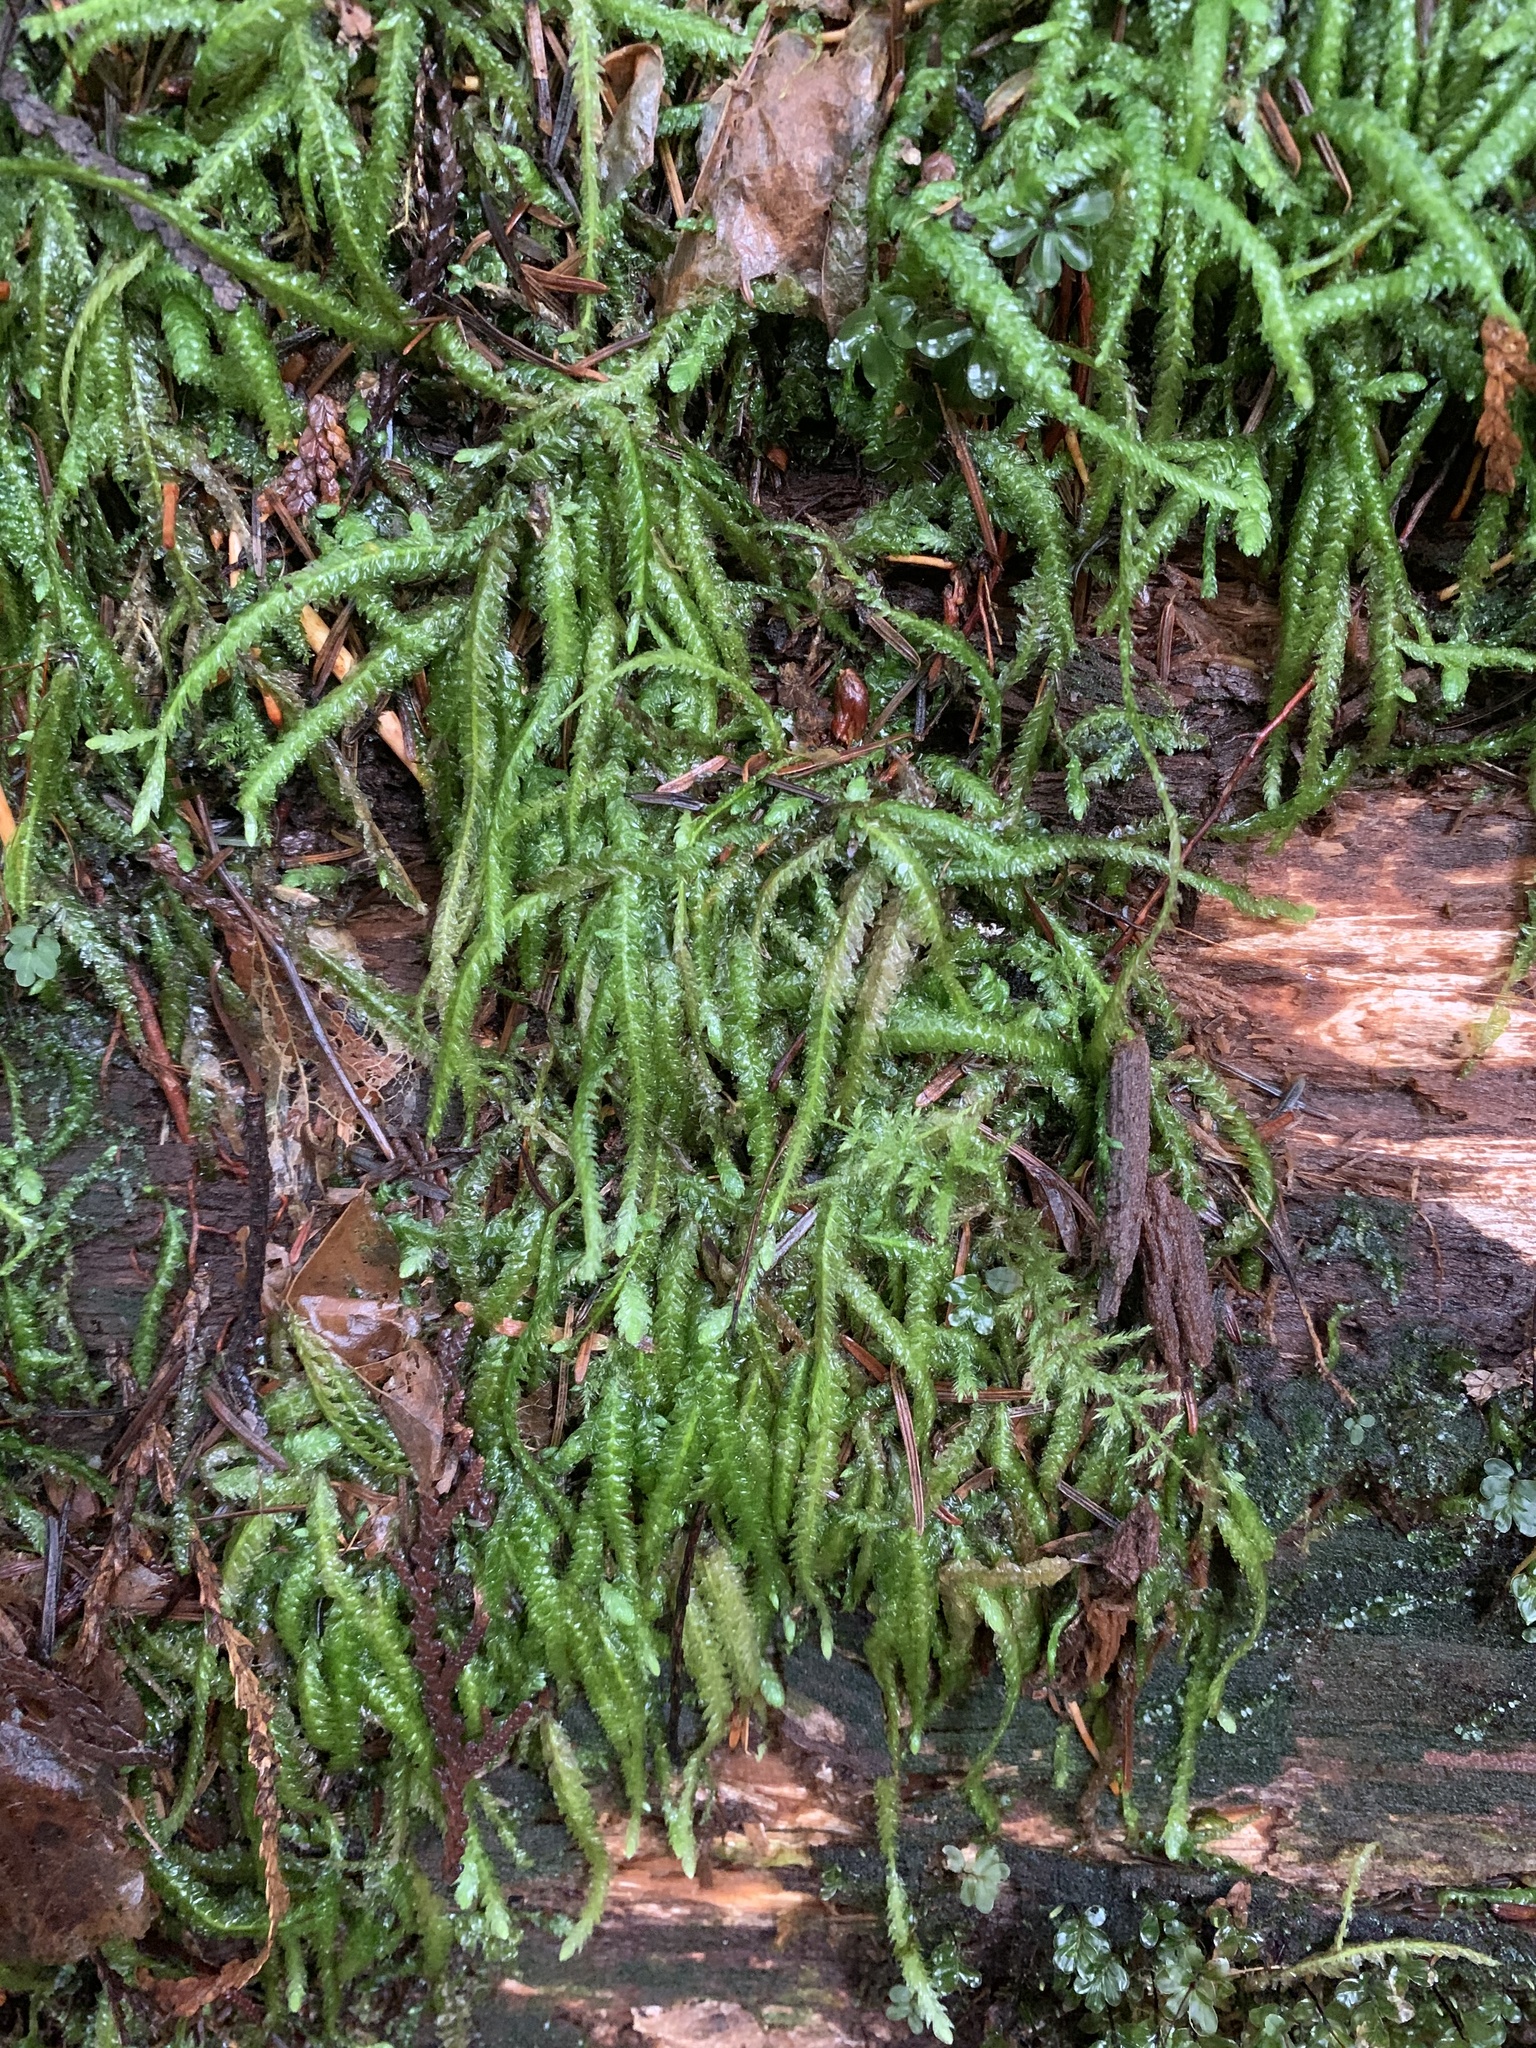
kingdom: Plantae
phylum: Bryophyta
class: Bryopsida
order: Hypnales
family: Plagiotheciaceae
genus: Plagiothecium
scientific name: Plagiothecium undulatum
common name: Waved silk-moss
